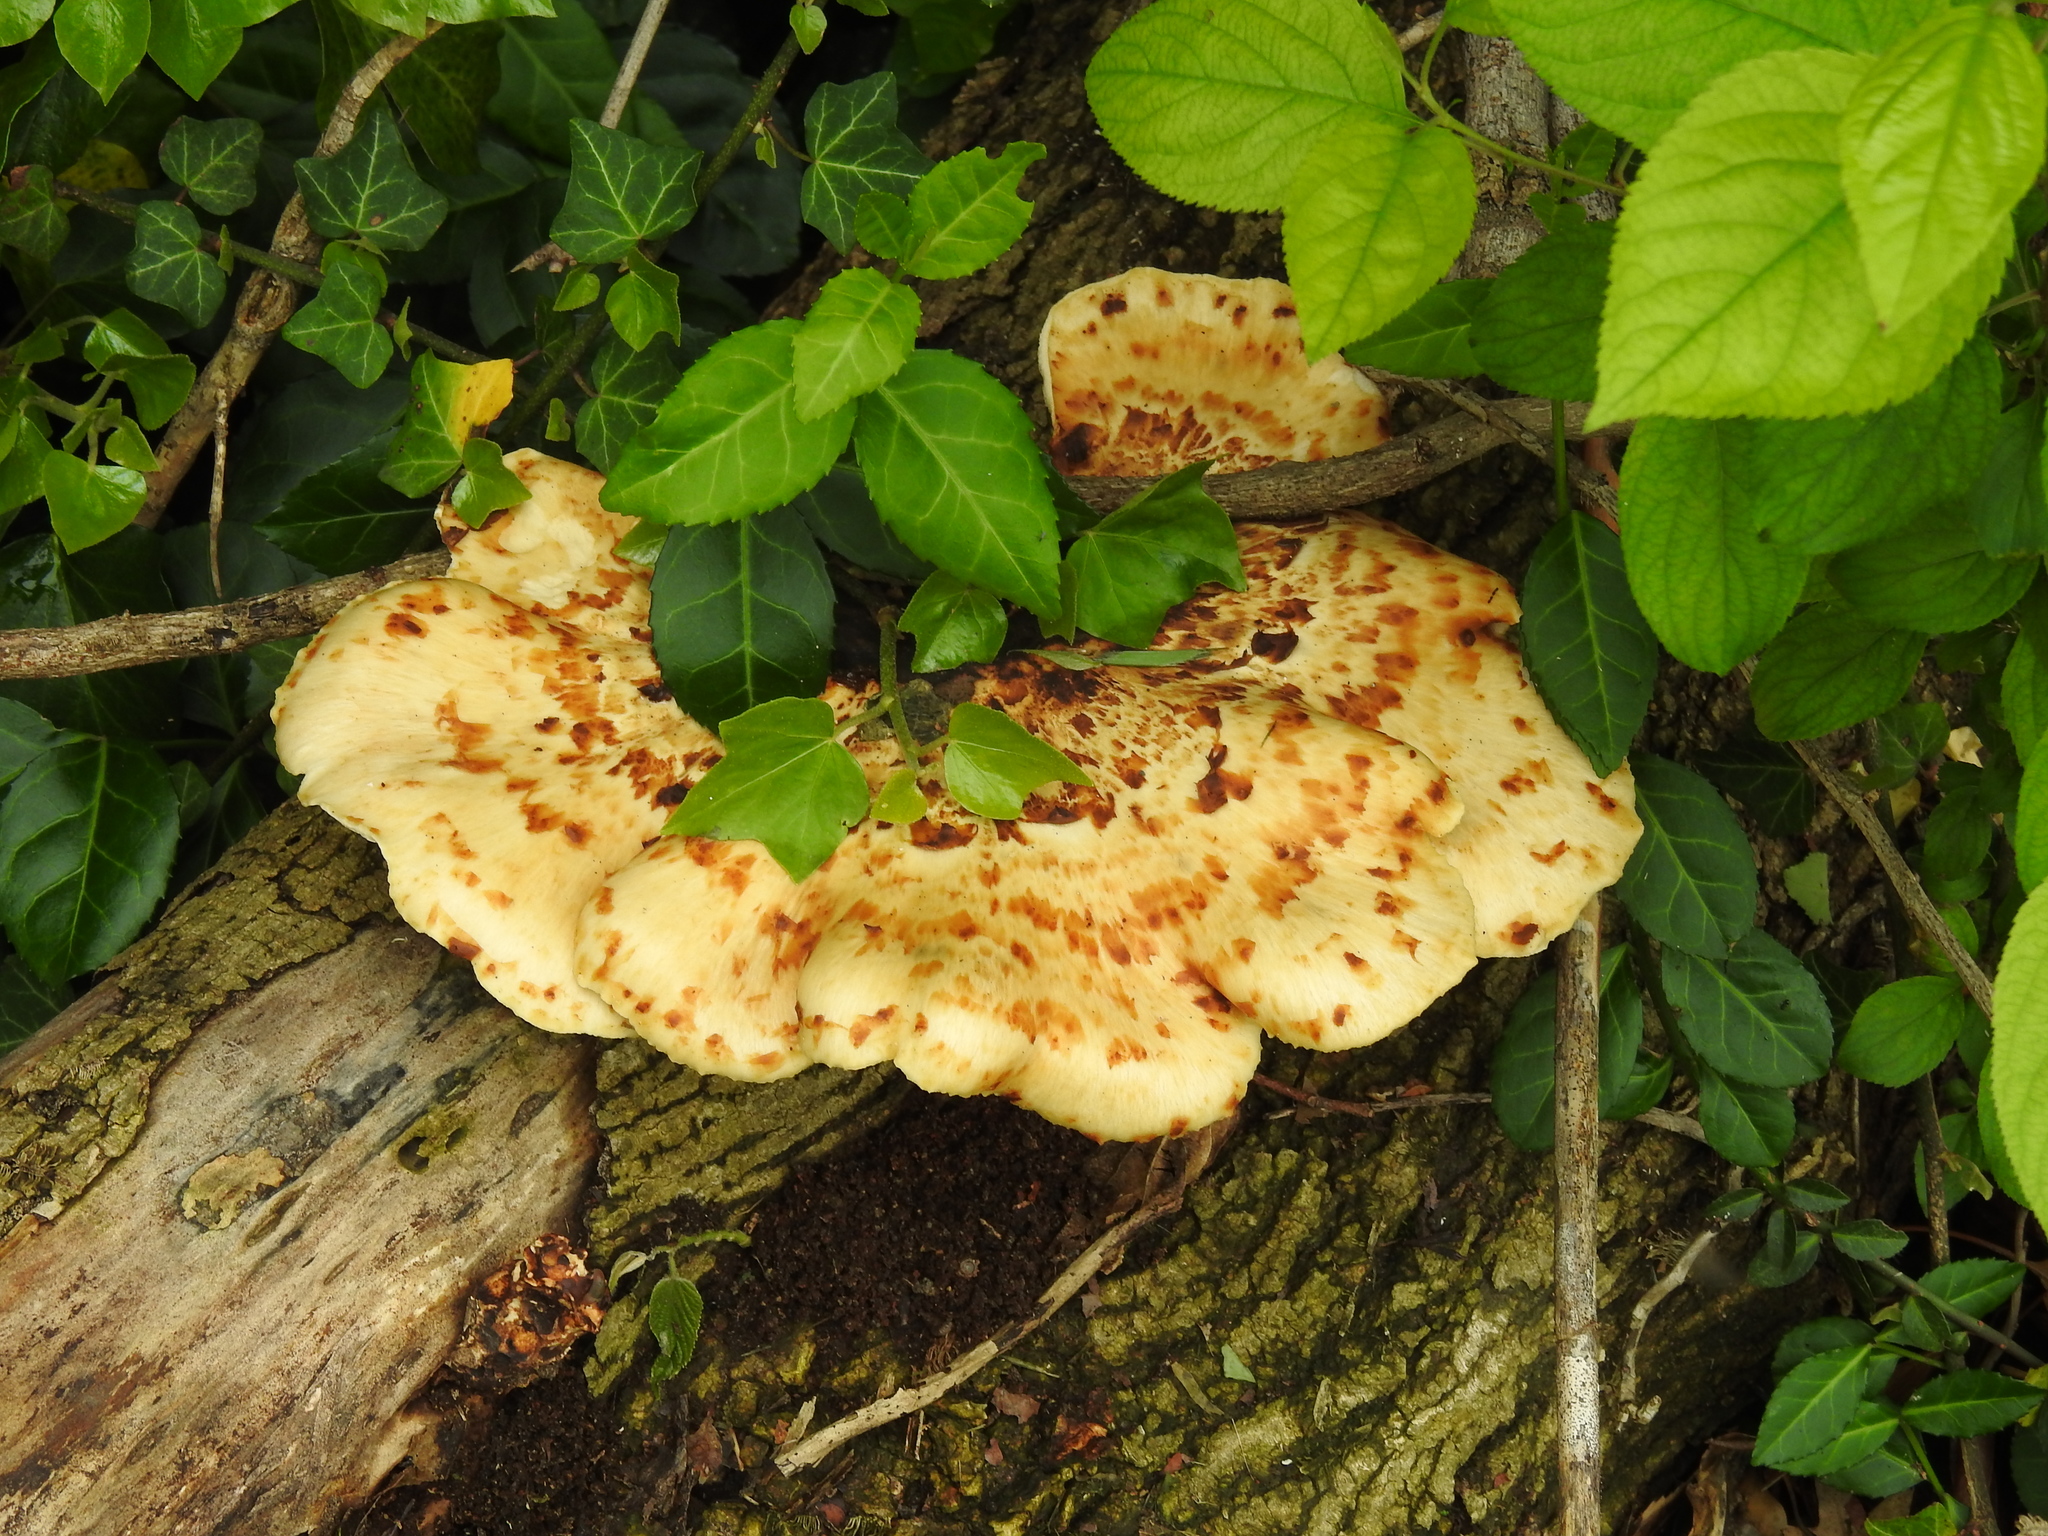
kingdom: Fungi
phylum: Basidiomycota
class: Agaricomycetes
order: Polyporales
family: Polyporaceae
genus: Cerioporus
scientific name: Cerioporus squamosus
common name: Dryad's saddle
